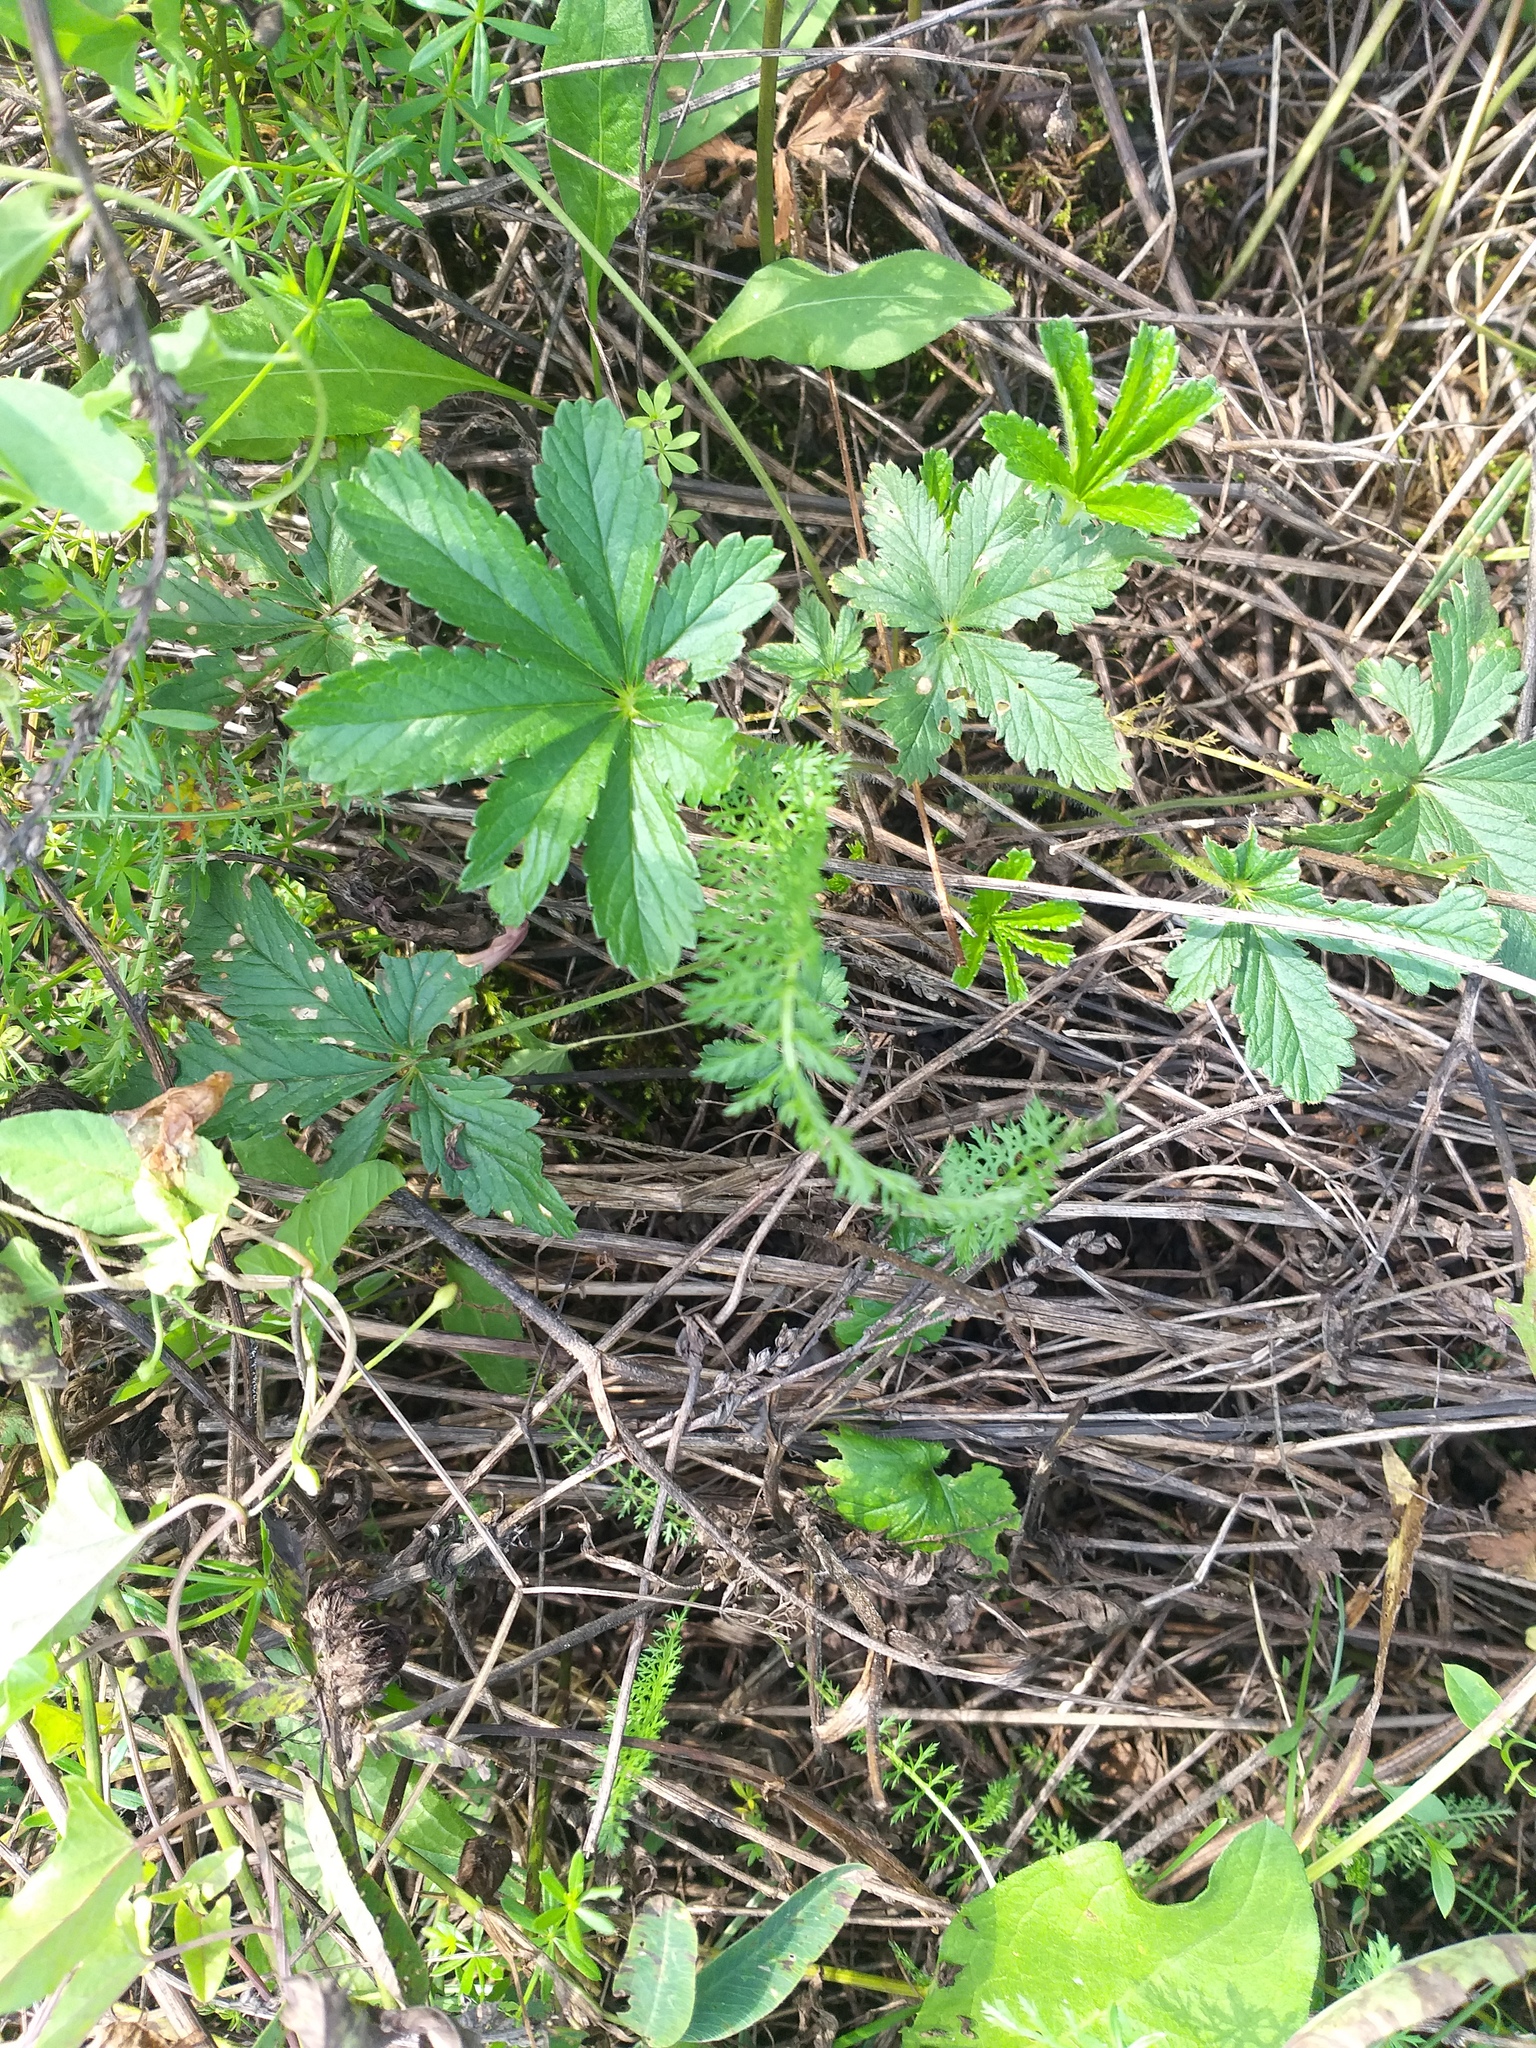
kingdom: Plantae
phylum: Tracheophyta
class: Magnoliopsida
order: Rosales
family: Rosaceae
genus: Potentilla
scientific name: Potentilla thuringiaca
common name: European cinquefoil
